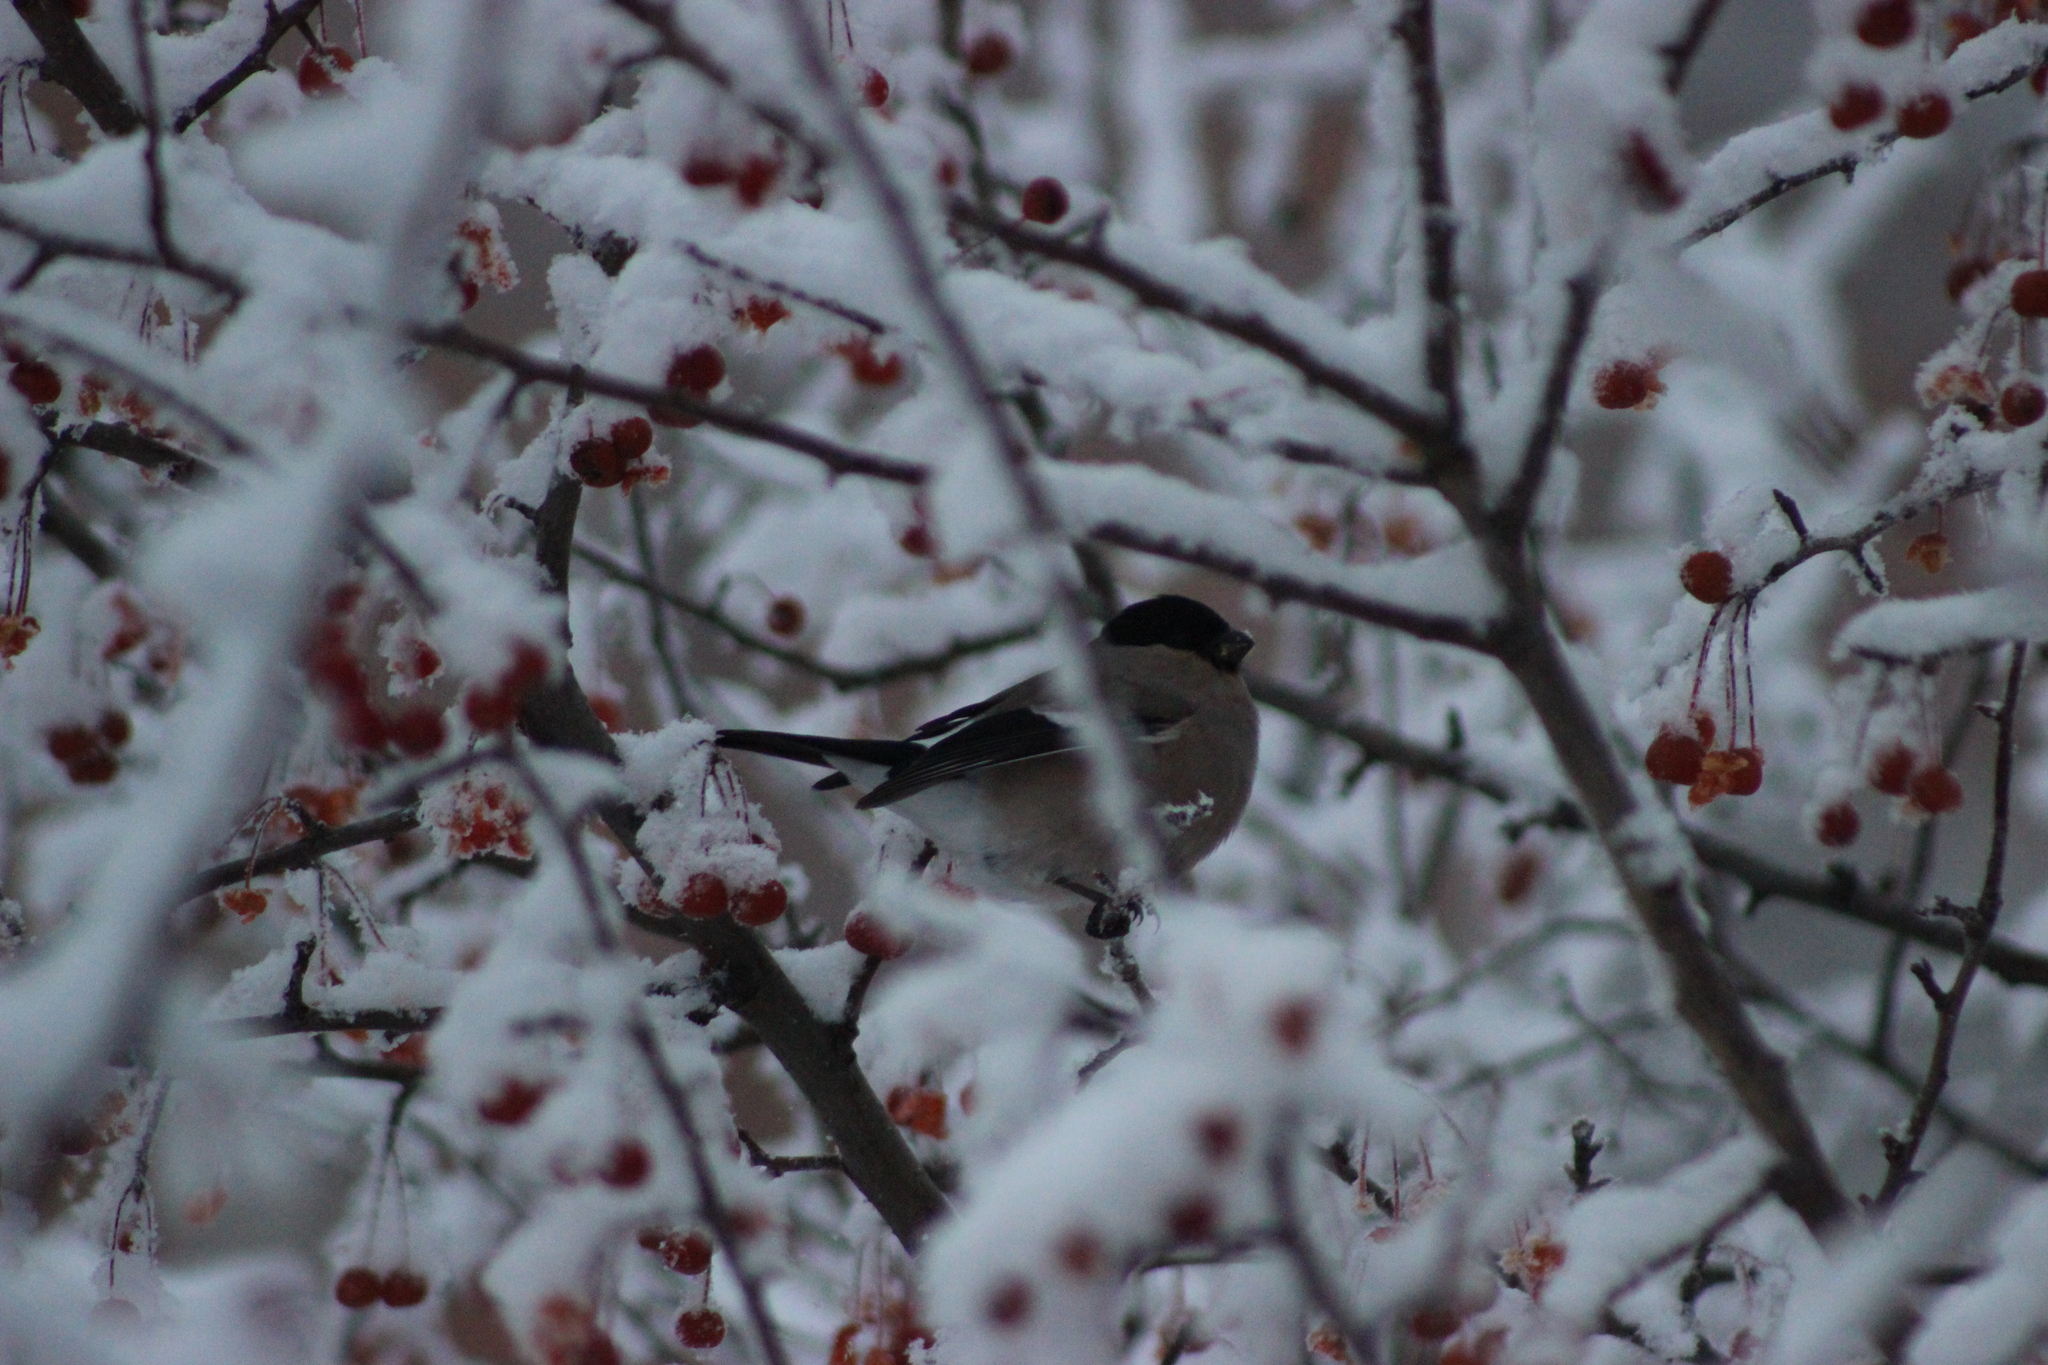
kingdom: Animalia
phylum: Chordata
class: Aves
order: Passeriformes
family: Fringillidae
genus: Pyrrhula
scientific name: Pyrrhula pyrrhula
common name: Eurasian bullfinch
